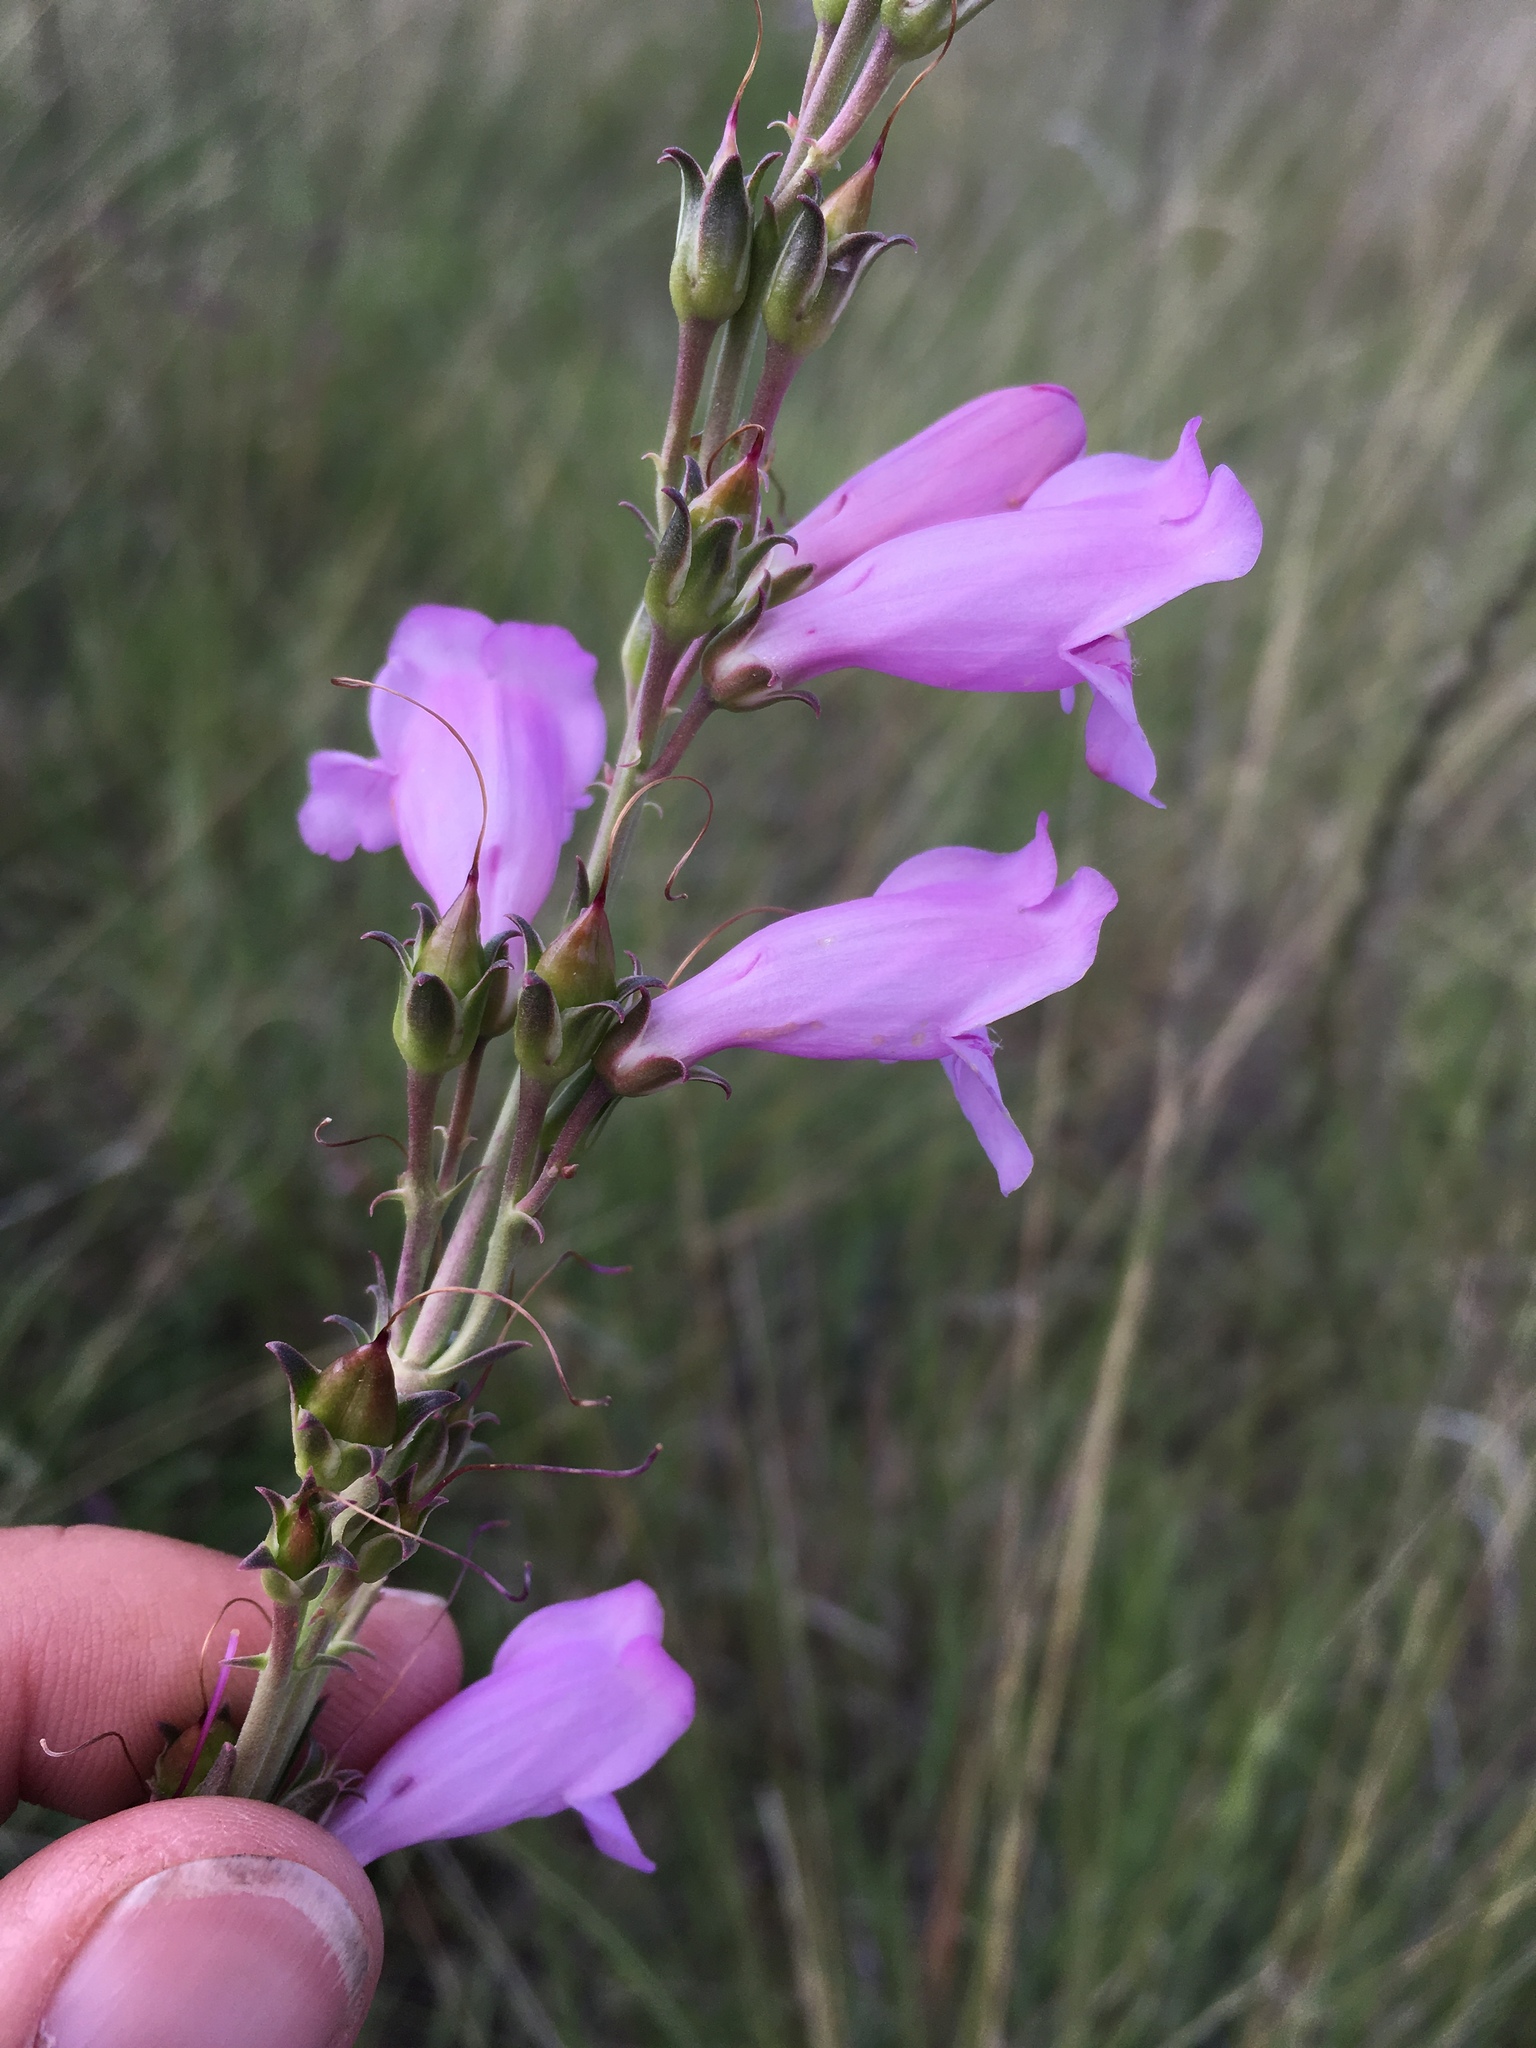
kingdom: Plantae
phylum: Tracheophyta
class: Magnoliopsida
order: Lamiales
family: Plantaginaceae
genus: Penstemon
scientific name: Penstemon virgatus
